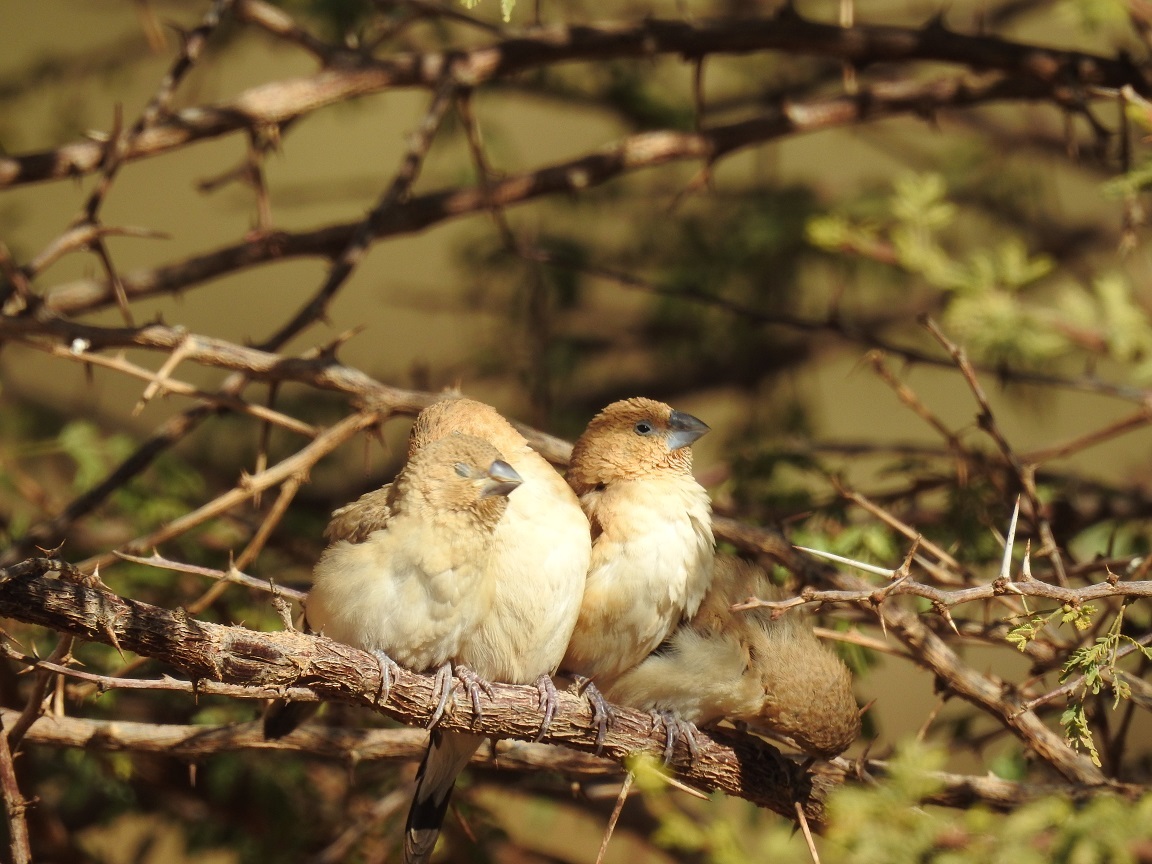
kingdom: Animalia
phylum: Chordata
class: Aves
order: Passeriformes
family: Estrildidae
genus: Euodice
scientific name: Euodice cantans
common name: African silverbill
